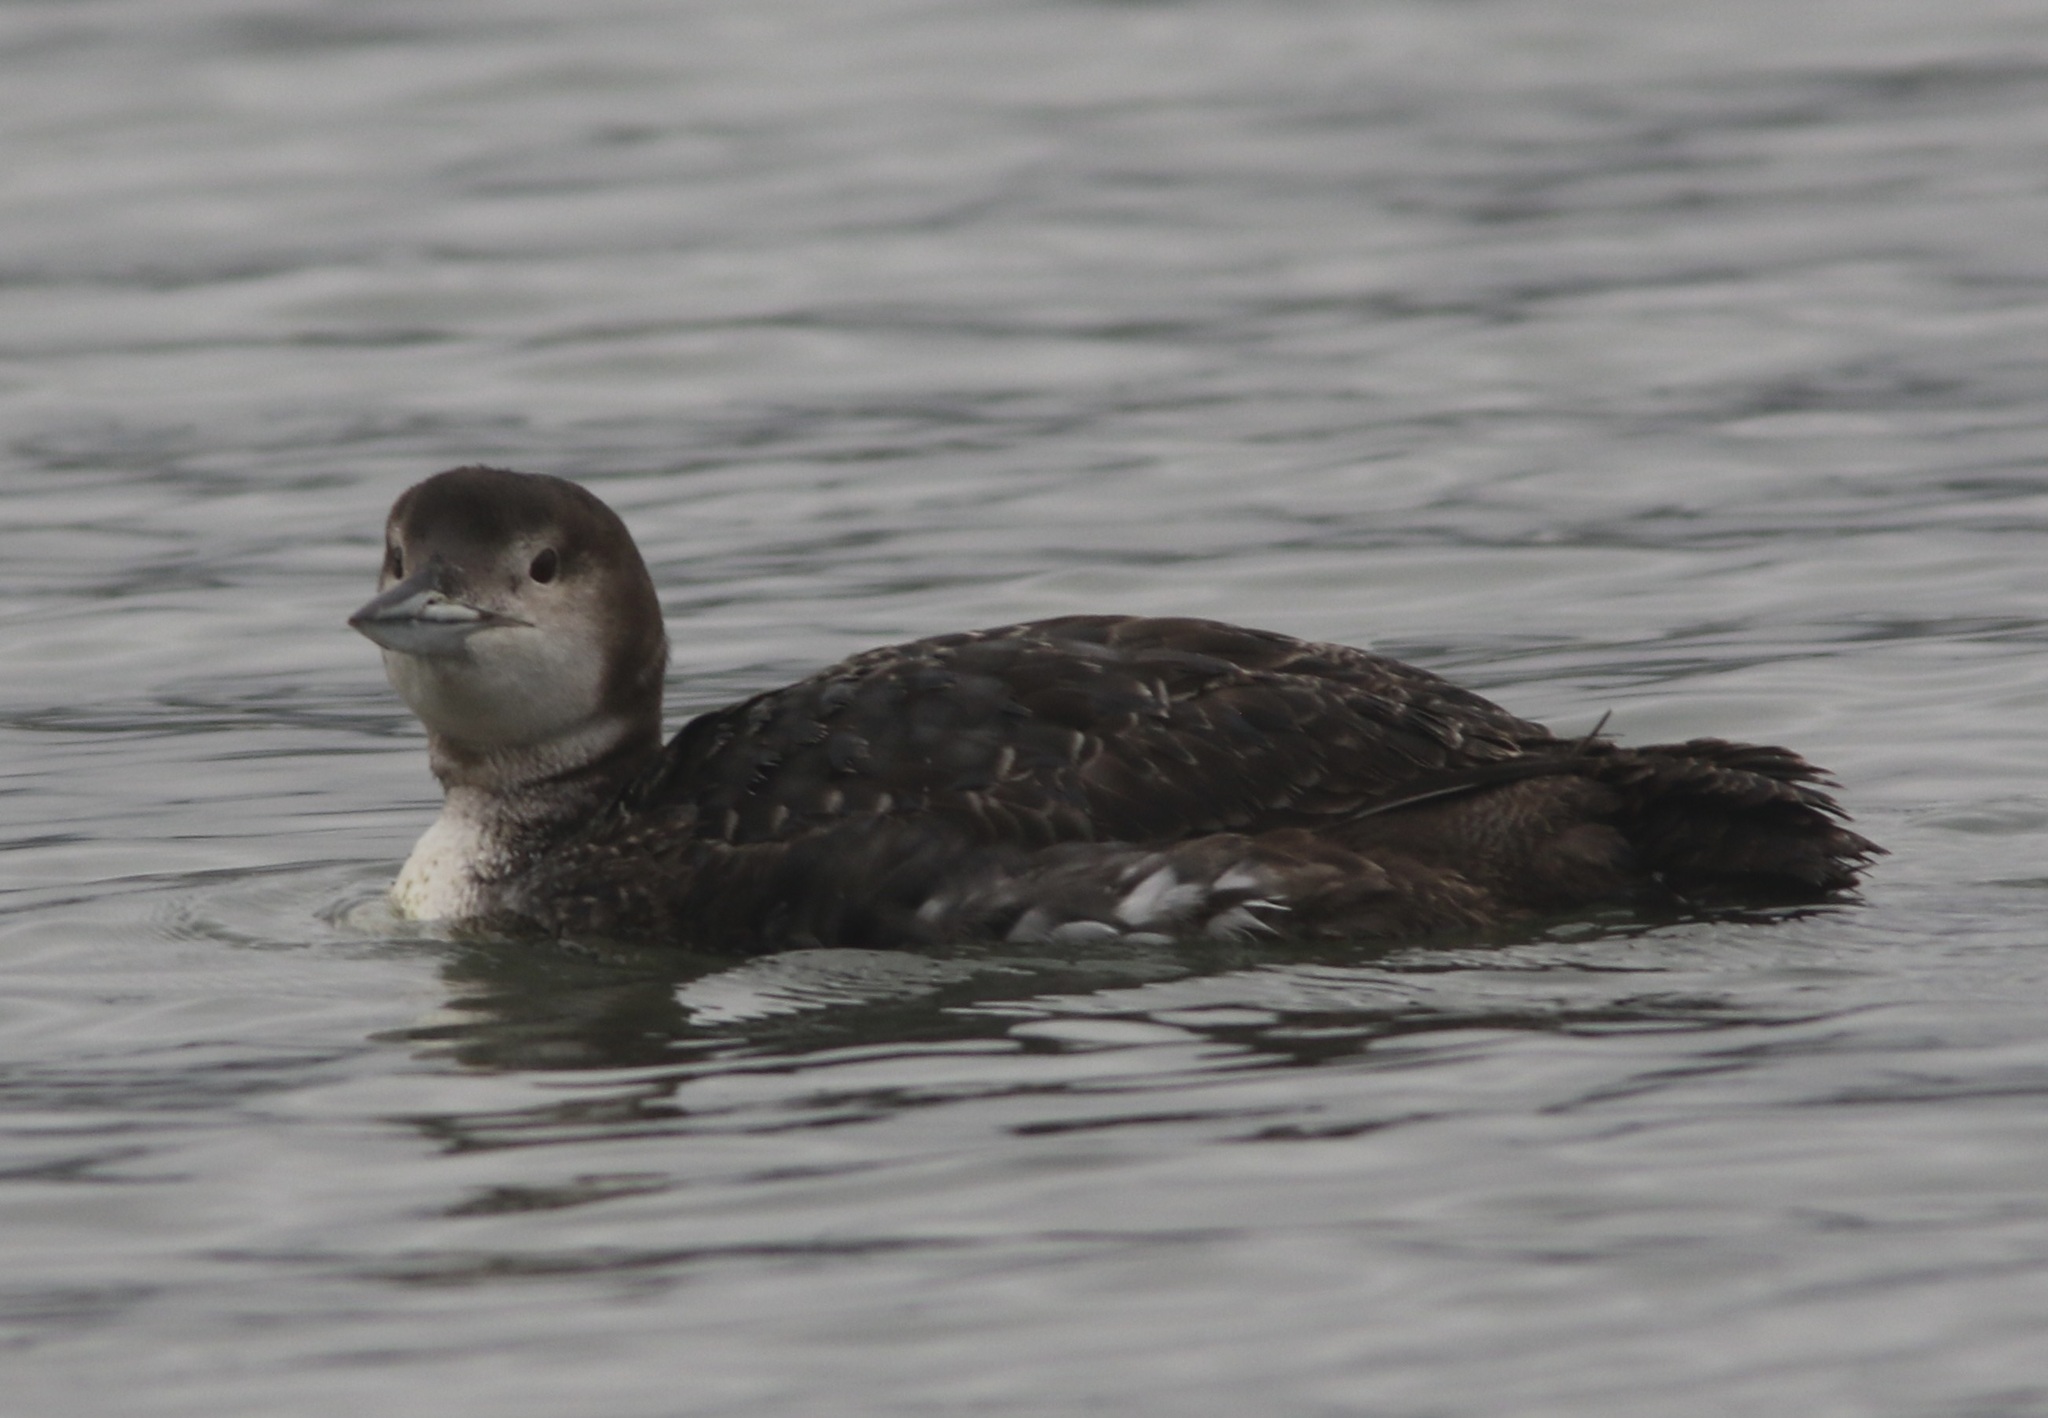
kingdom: Animalia
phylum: Chordata
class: Aves
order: Gaviiformes
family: Gaviidae
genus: Gavia
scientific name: Gavia immer
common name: Common loon
